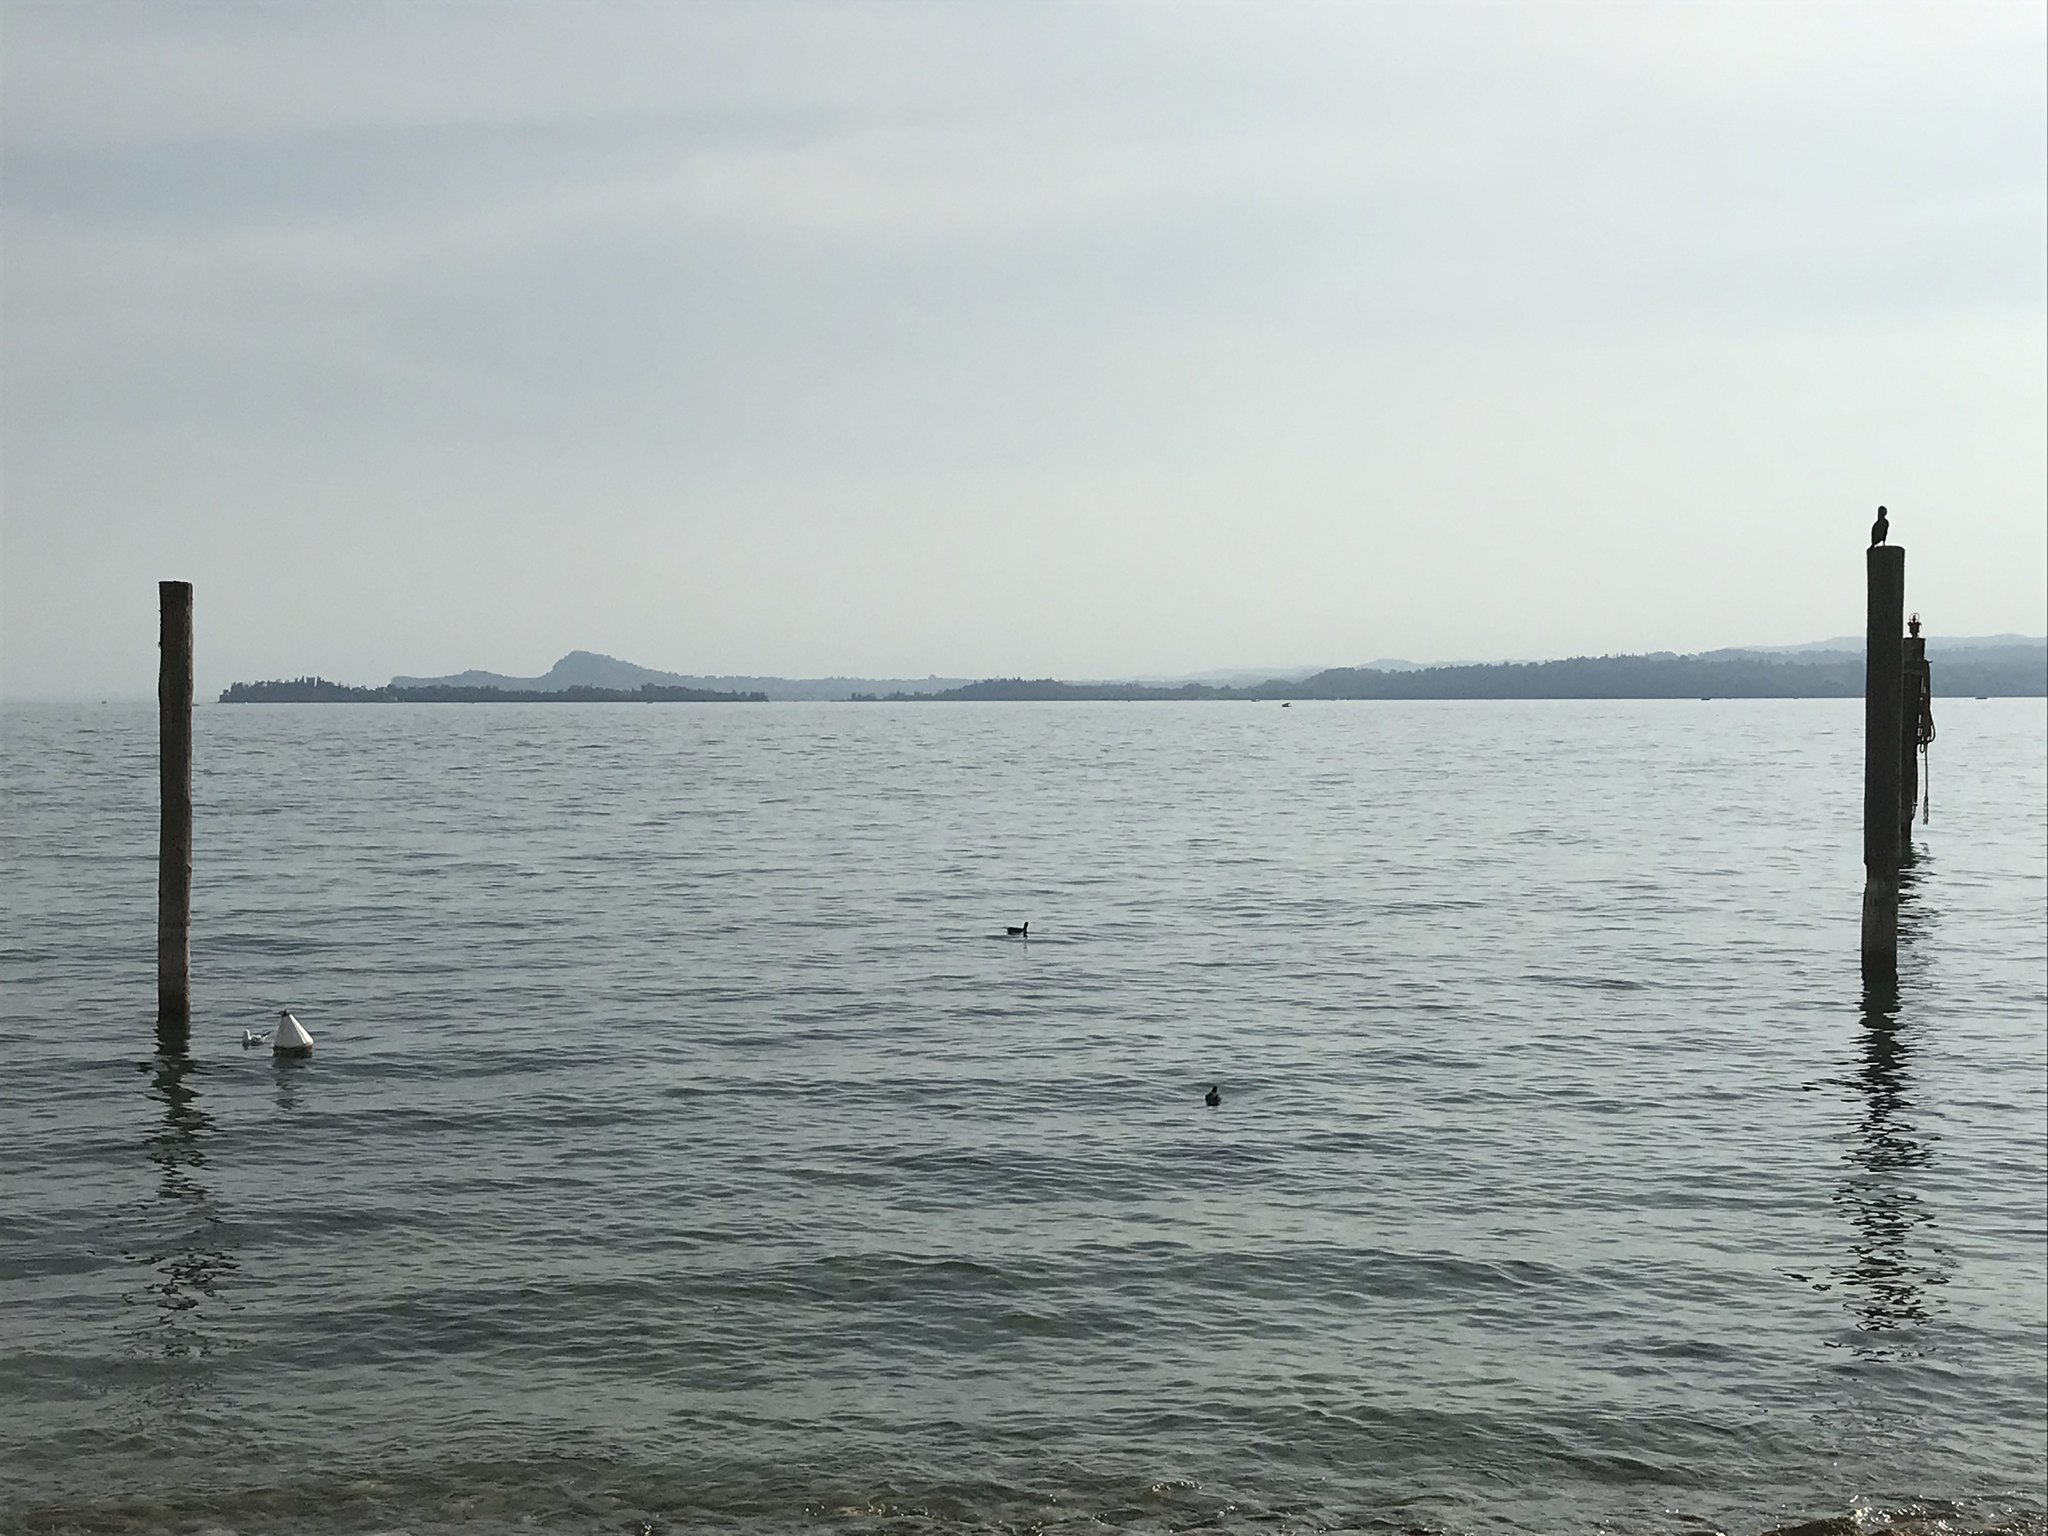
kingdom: Animalia
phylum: Chordata
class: Aves
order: Suliformes
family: Phalacrocoracidae
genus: Phalacrocorax
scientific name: Phalacrocorax carbo
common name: Great cormorant
